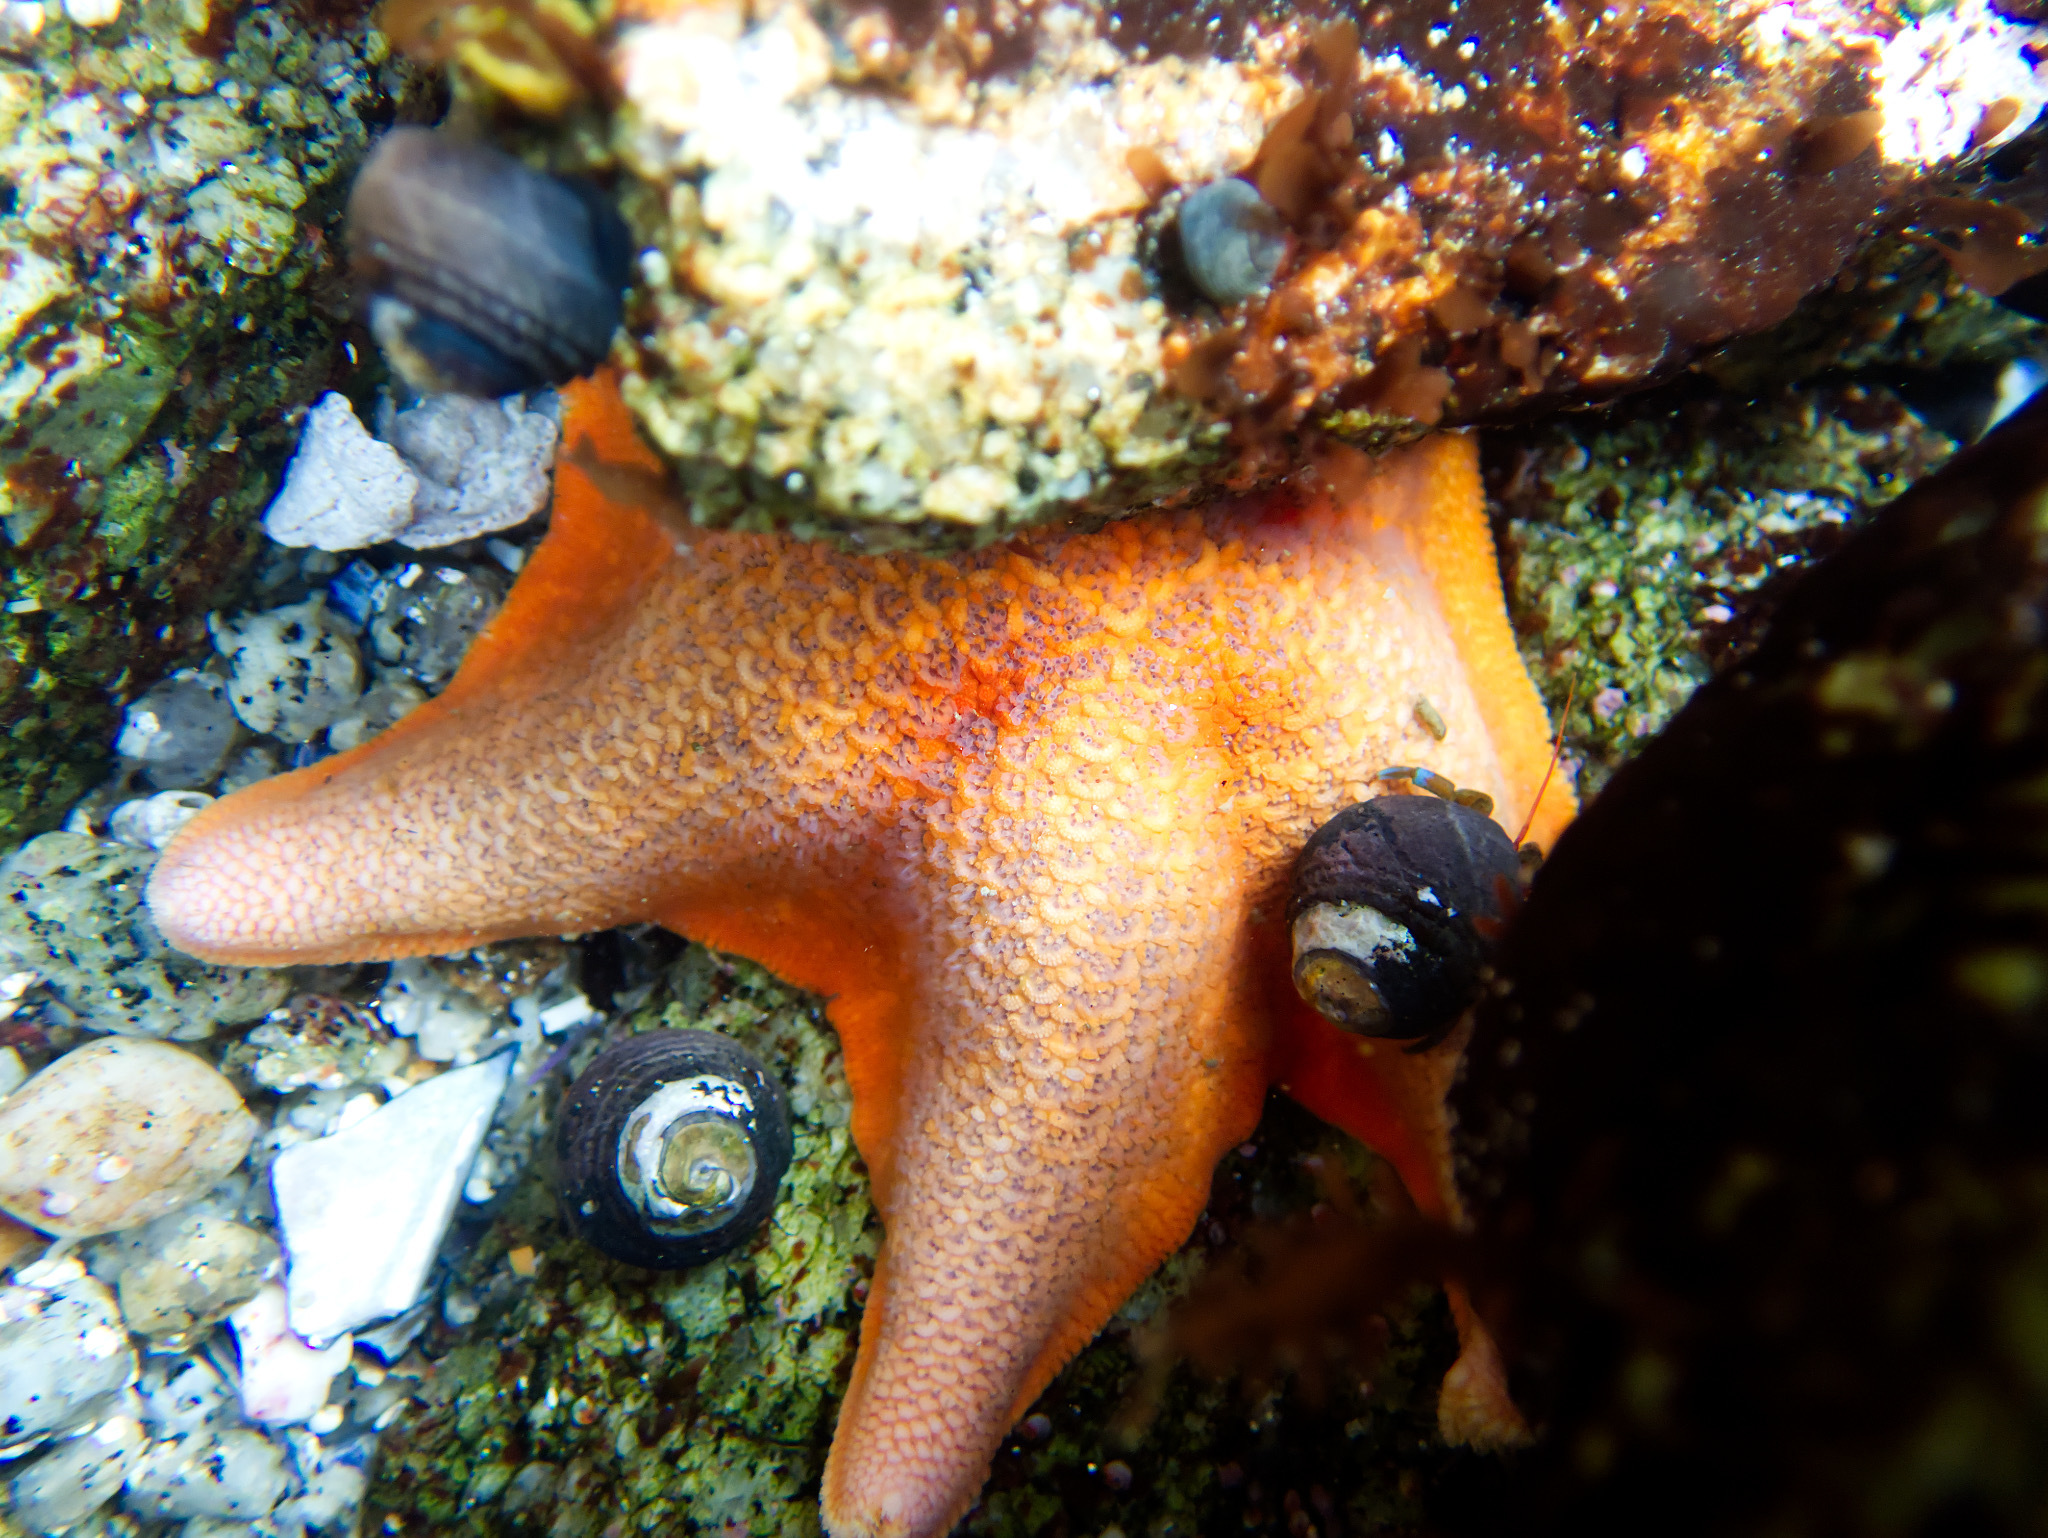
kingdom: Animalia
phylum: Echinodermata
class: Asteroidea
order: Valvatida
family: Asterinidae
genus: Patiria
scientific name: Patiria miniata
